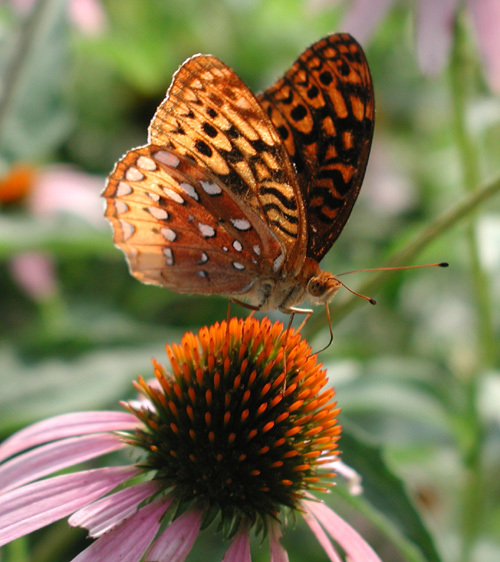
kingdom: Animalia
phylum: Arthropoda
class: Insecta
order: Lepidoptera
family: Nymphalidae
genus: Speyeria
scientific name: Speyeria cybele
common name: Great spangled fritillary
